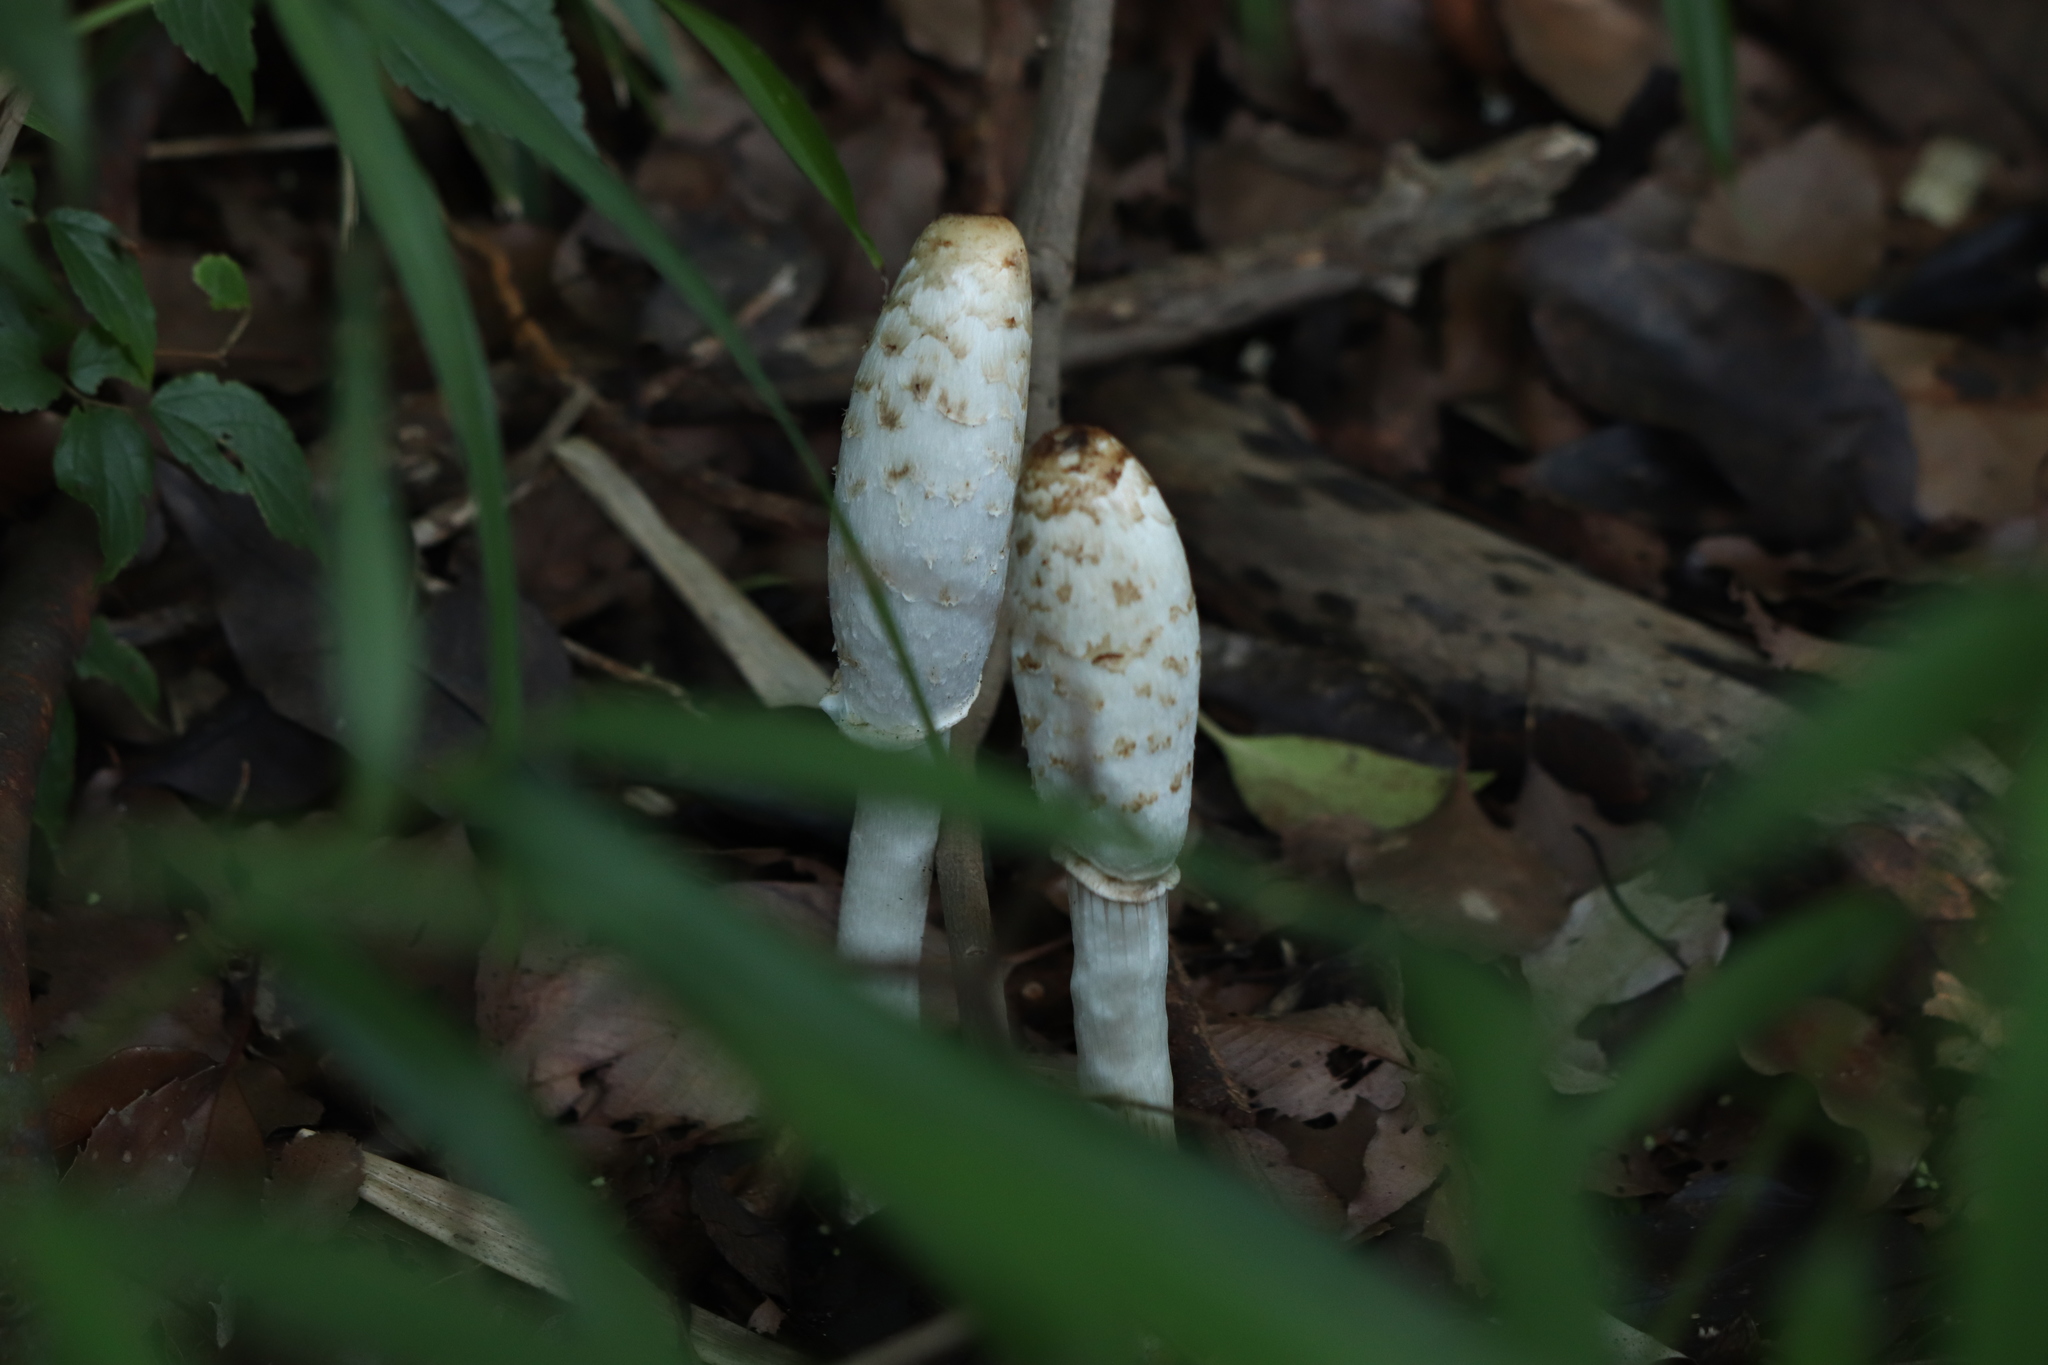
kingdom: Fungi
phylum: Basidiomycota
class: Agaricomycetes
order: Agaricales
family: Agaricaceae
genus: Coprinus
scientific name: Coprinus comatus
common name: Lawyer's wig
